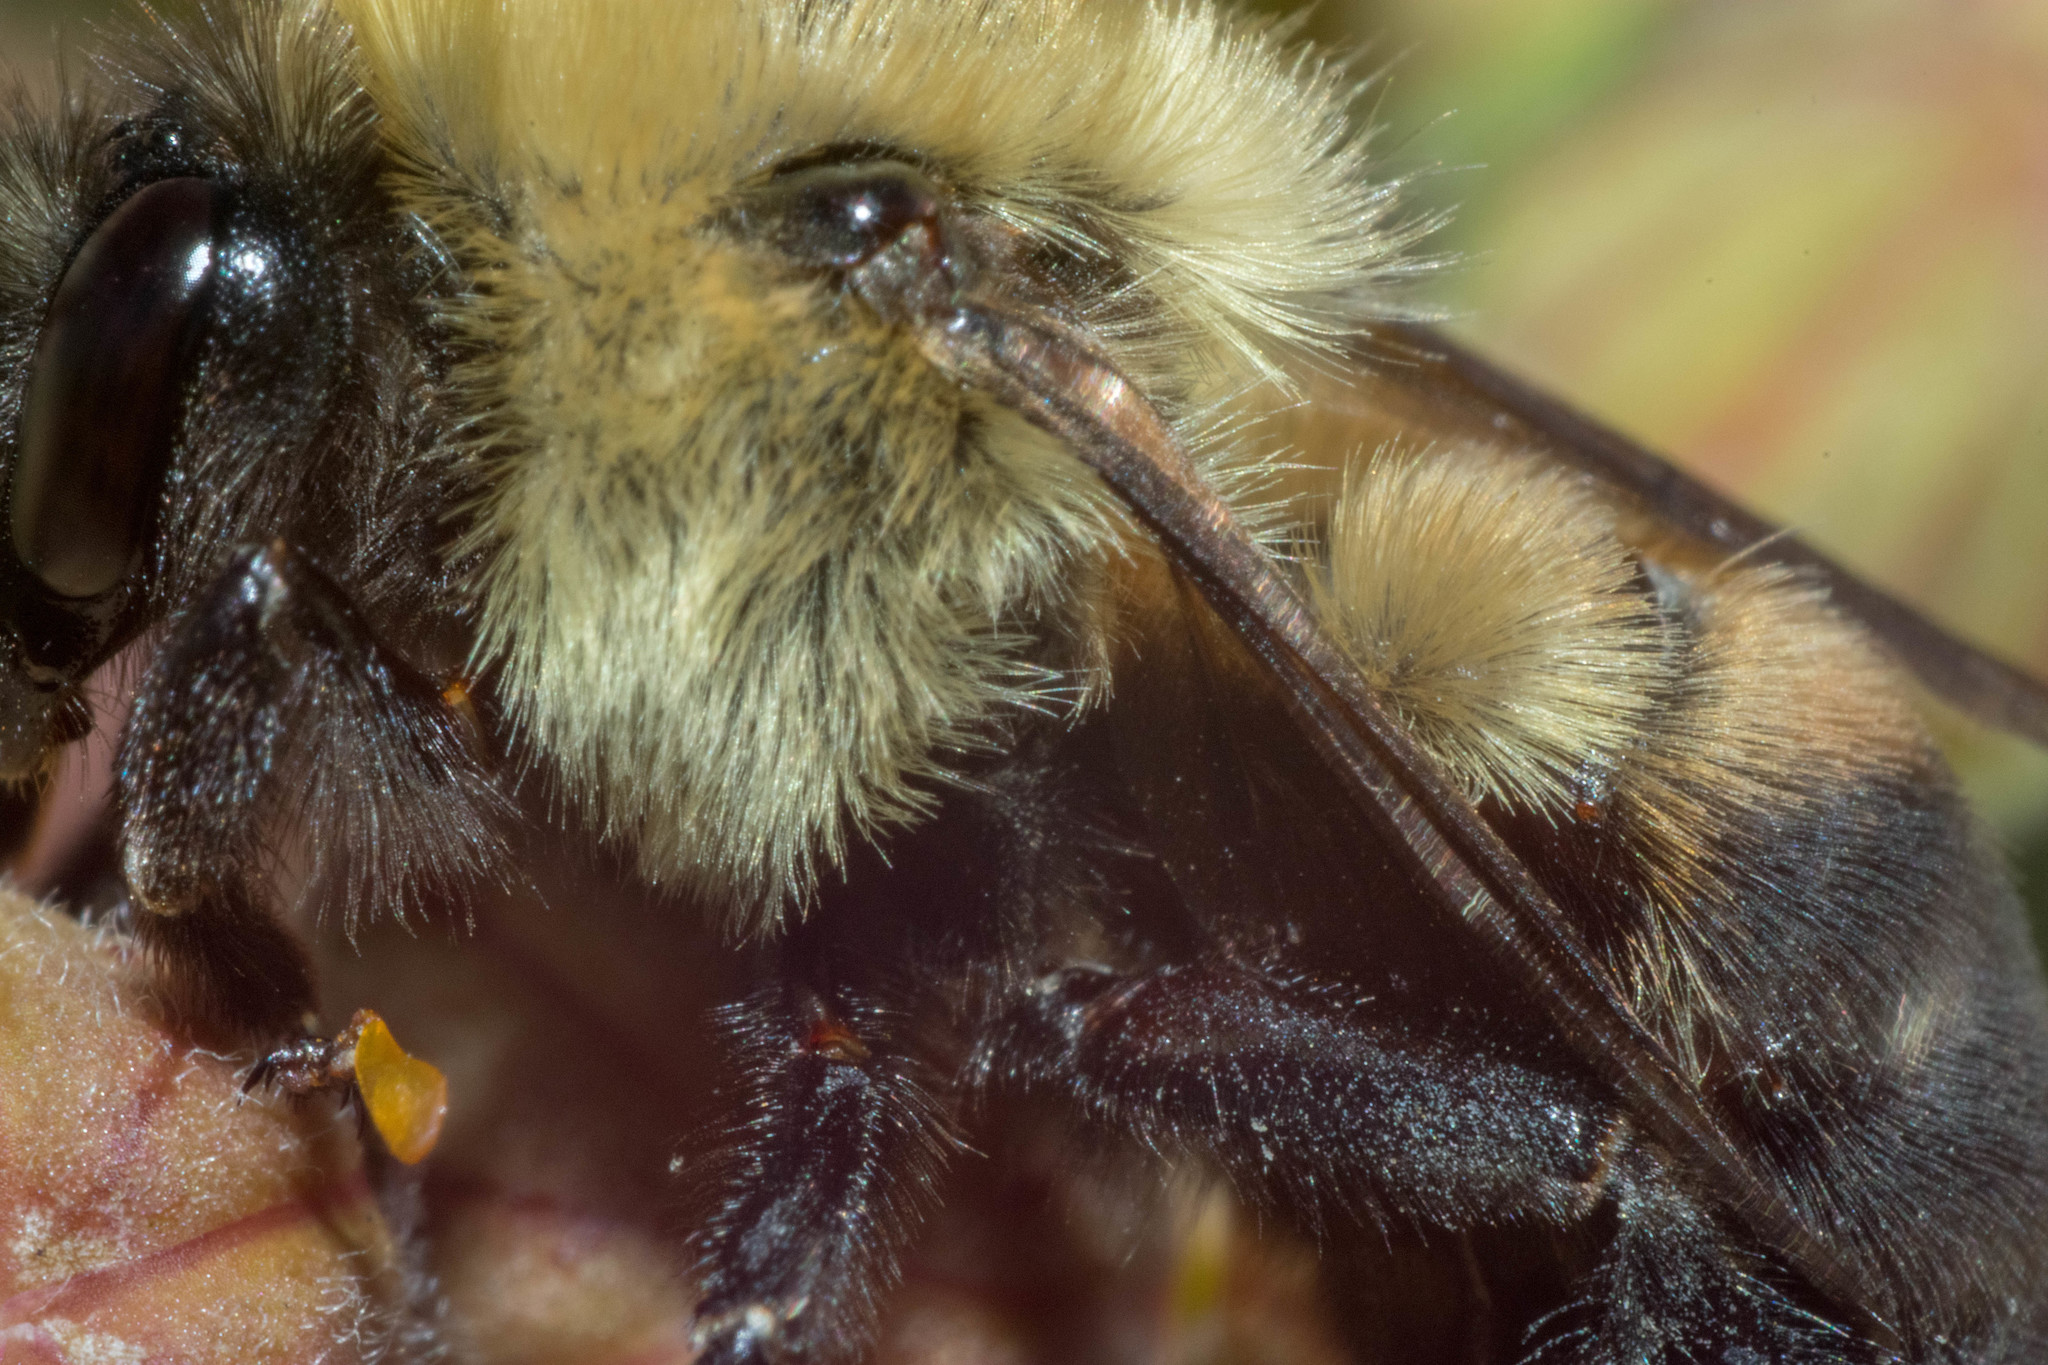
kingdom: Animalia
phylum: Arthropoda
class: Insecta
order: Hymenoptera
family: Apidae
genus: Bombus
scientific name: Bombus griseocollis
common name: Brown-belted bumble bee
